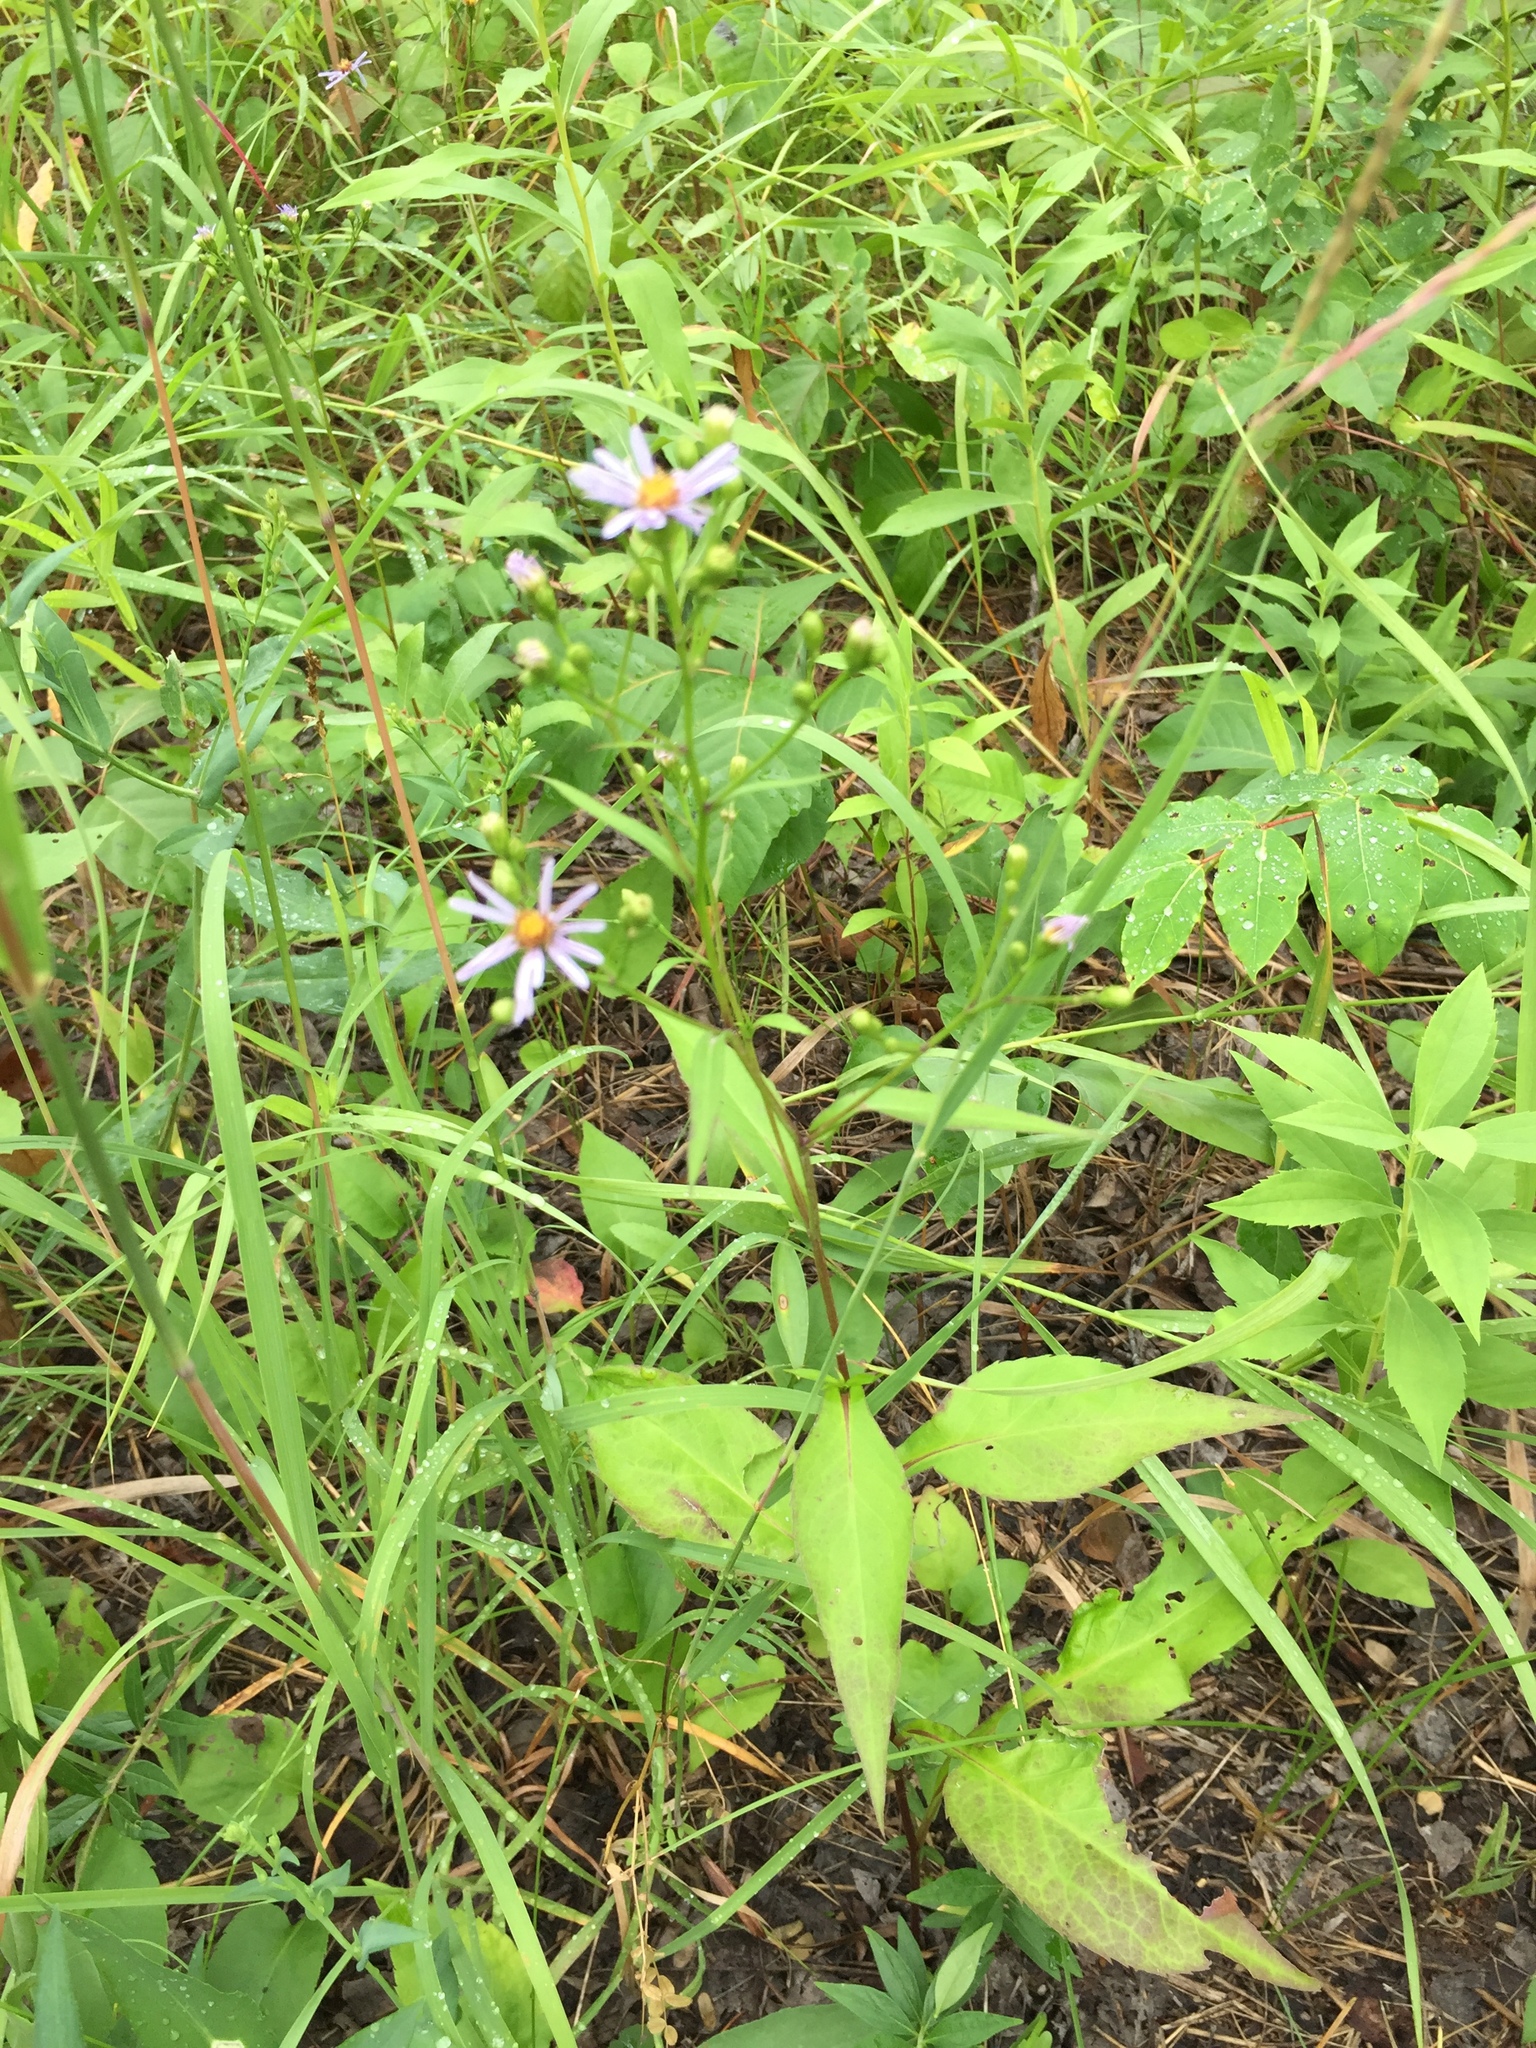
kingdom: Plantae
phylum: Tracheophyta
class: Magnoliopsida
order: Asterales
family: Asteraceae
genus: Symphyotrichum
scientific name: Symphyotrichum laeve
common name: Glaucous aster
